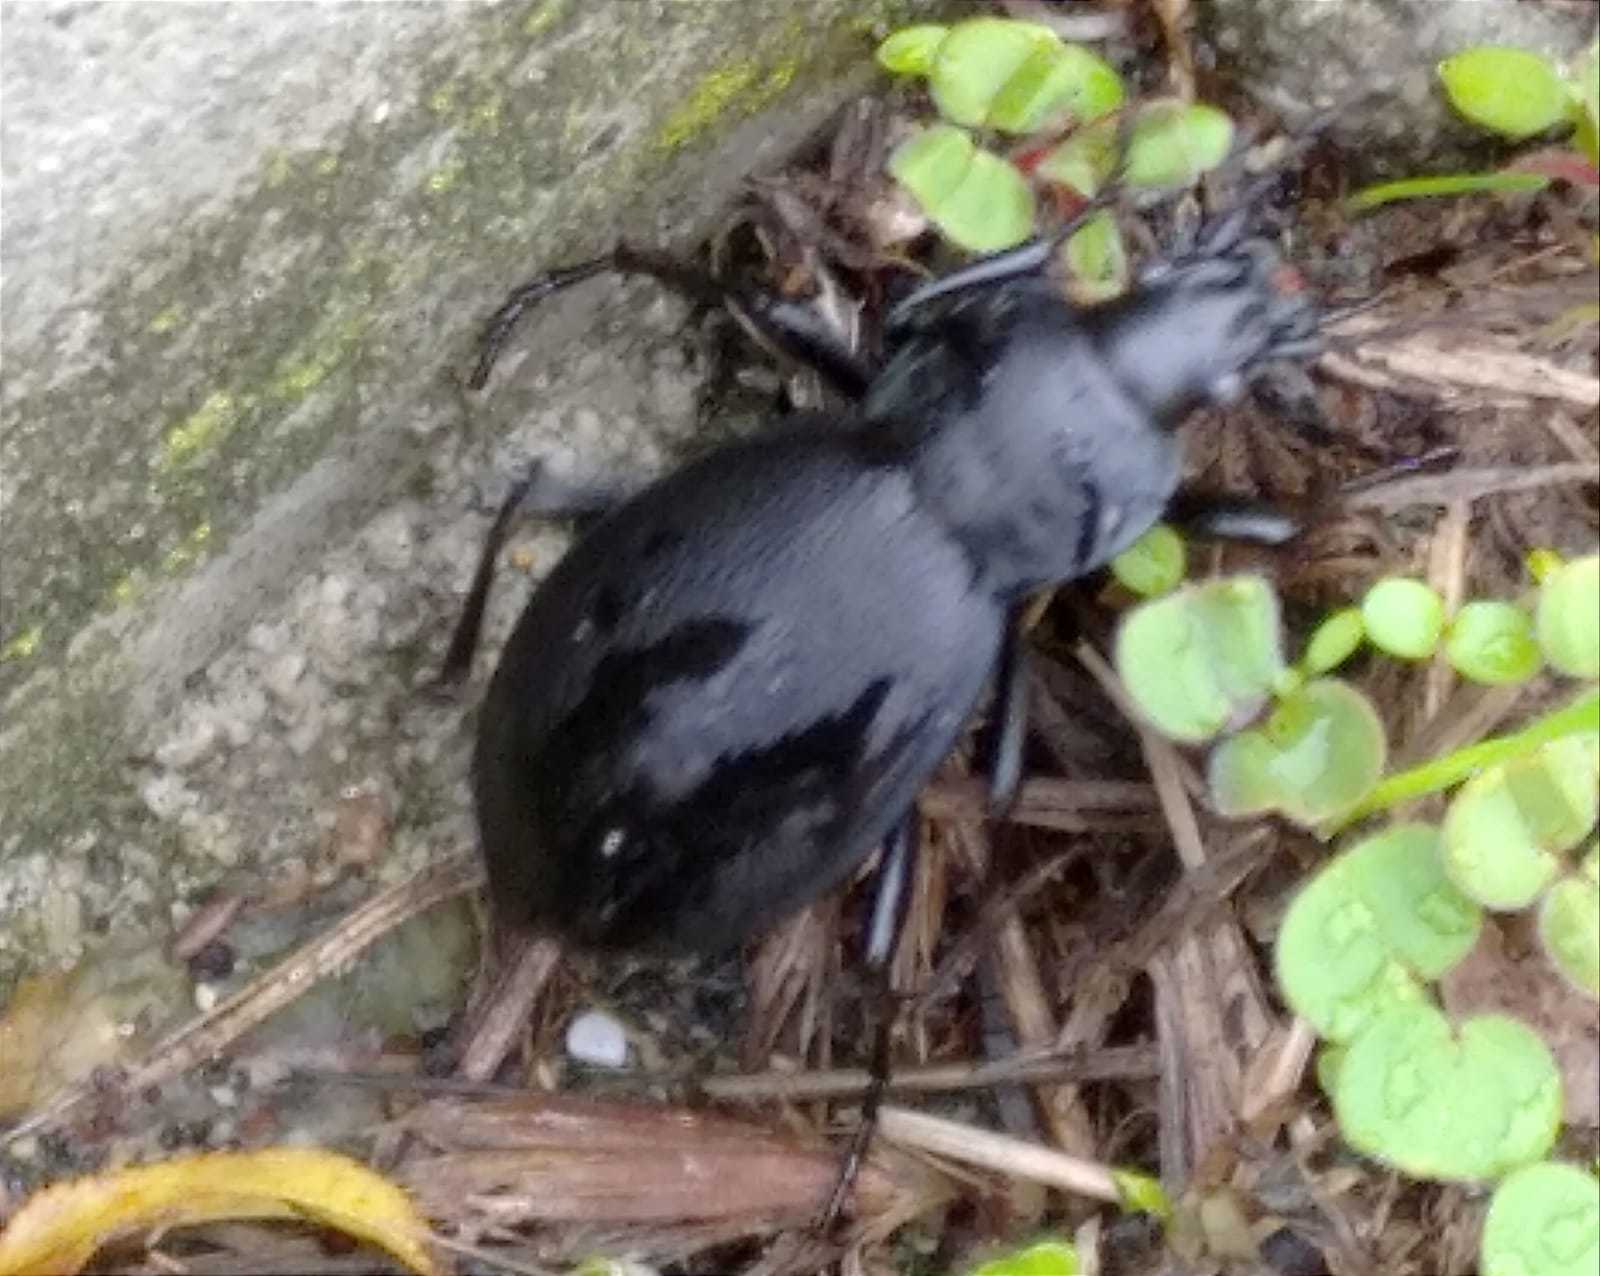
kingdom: Animalia
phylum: Arthropoda
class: Insecta
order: Coleoptera
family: Carabidae
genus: Carabus
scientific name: Carabus coriaceus
